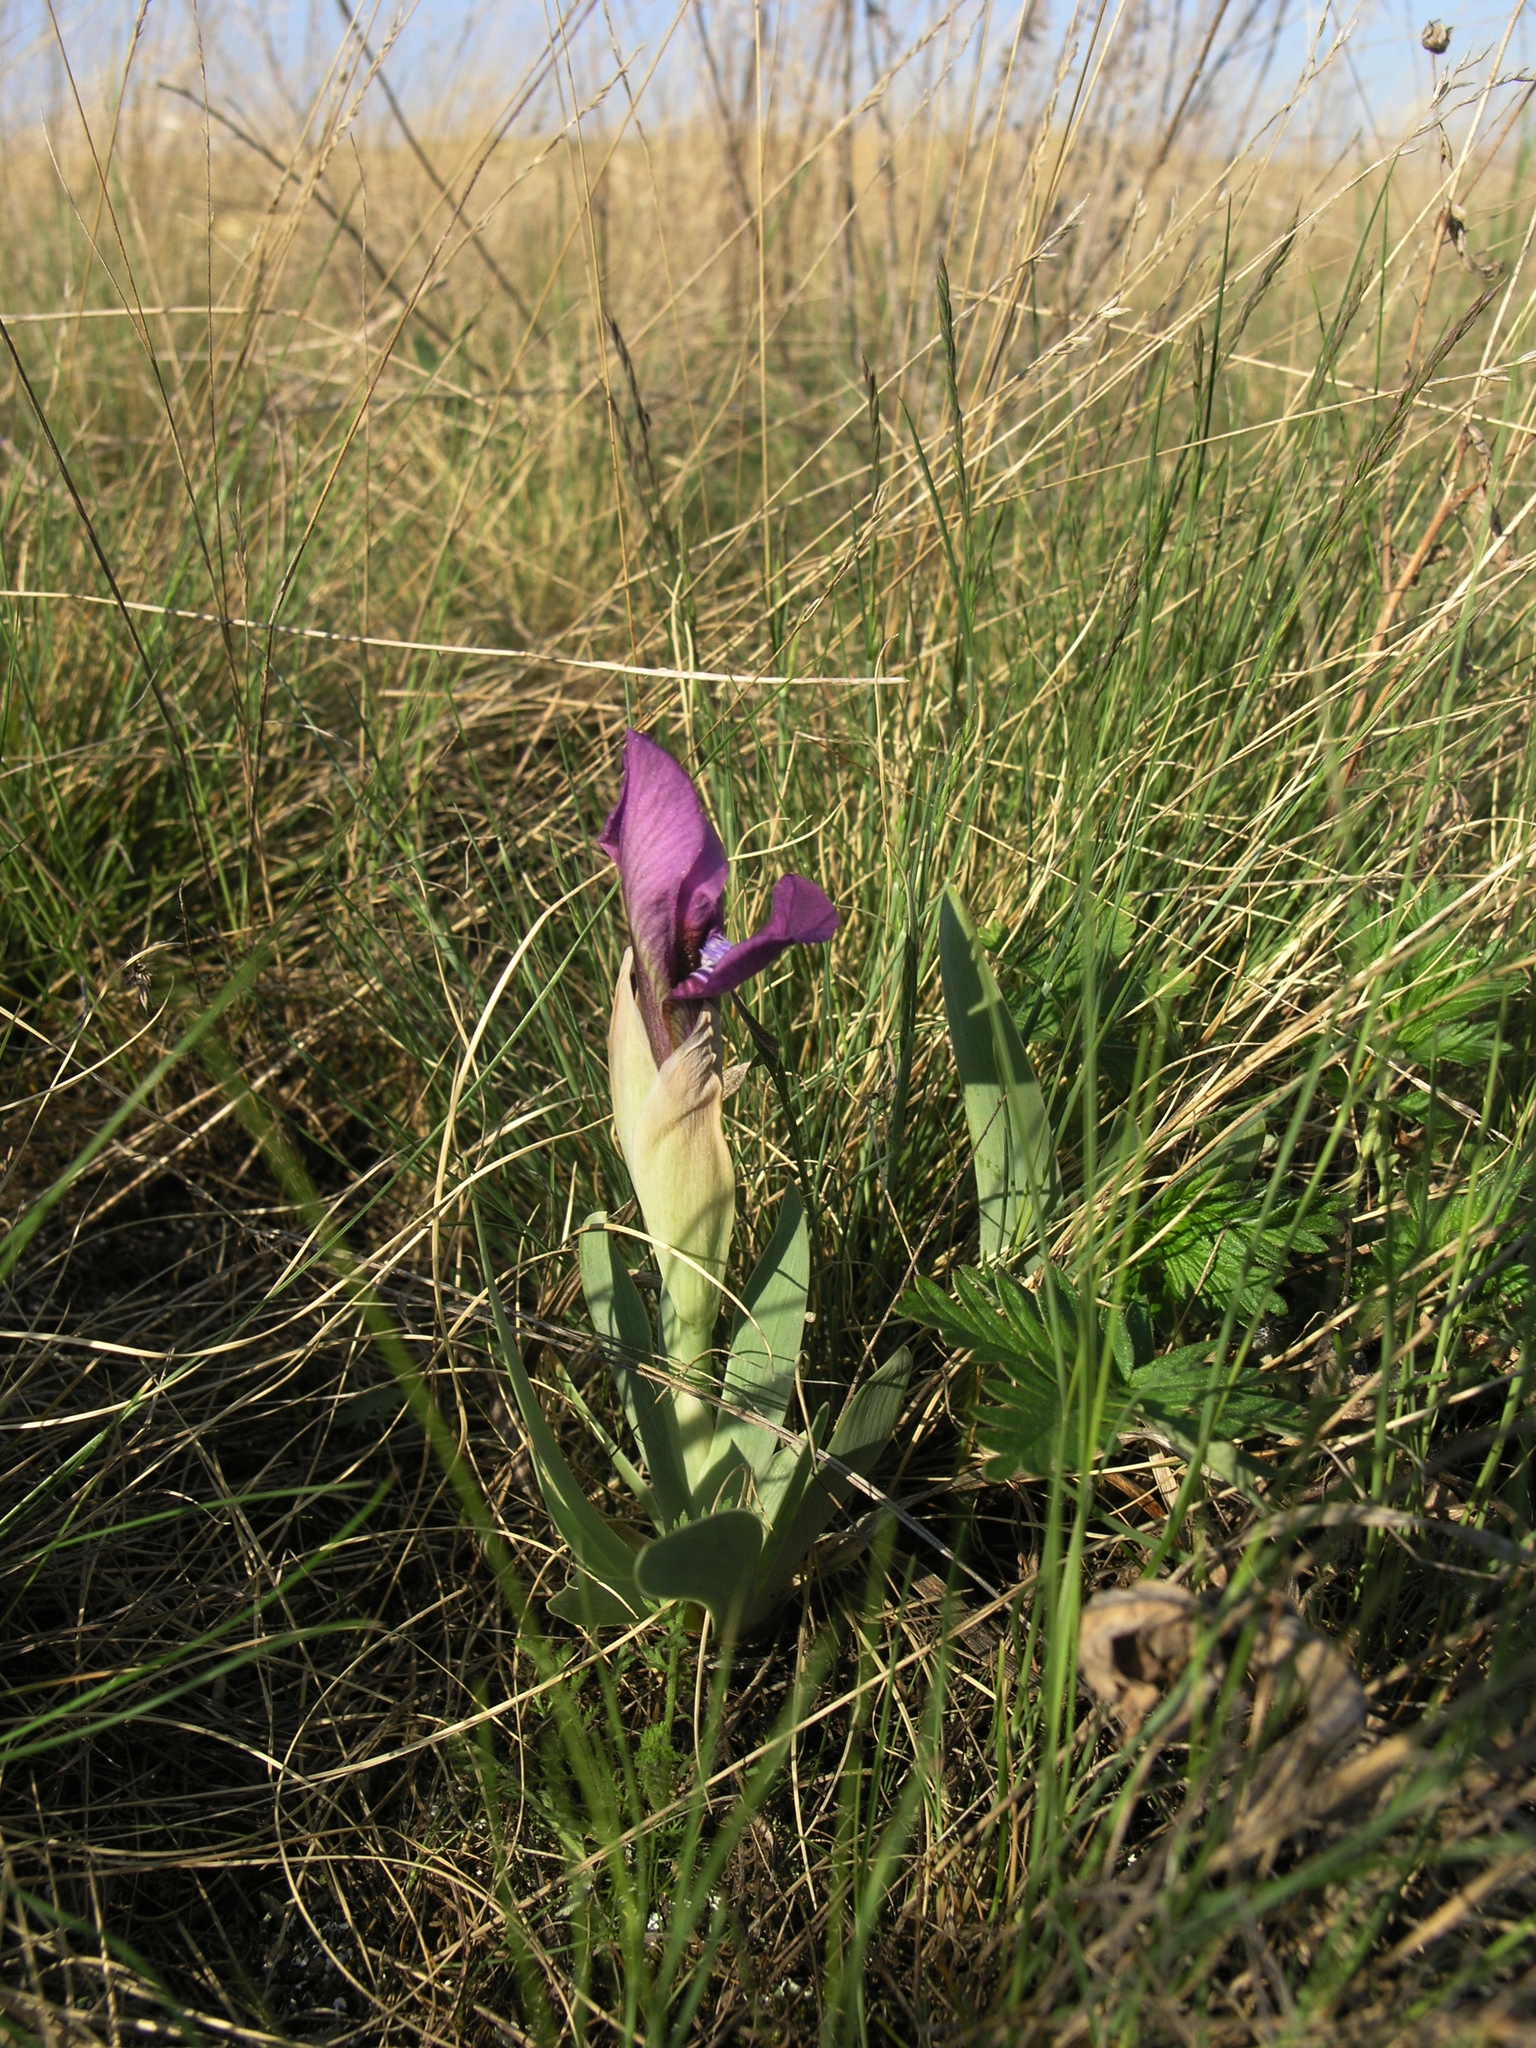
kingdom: Plantae
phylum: Tracheophyta
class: Liliopsida
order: Asparagales
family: Iridaceae
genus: Iris
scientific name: Iris glaucescens
